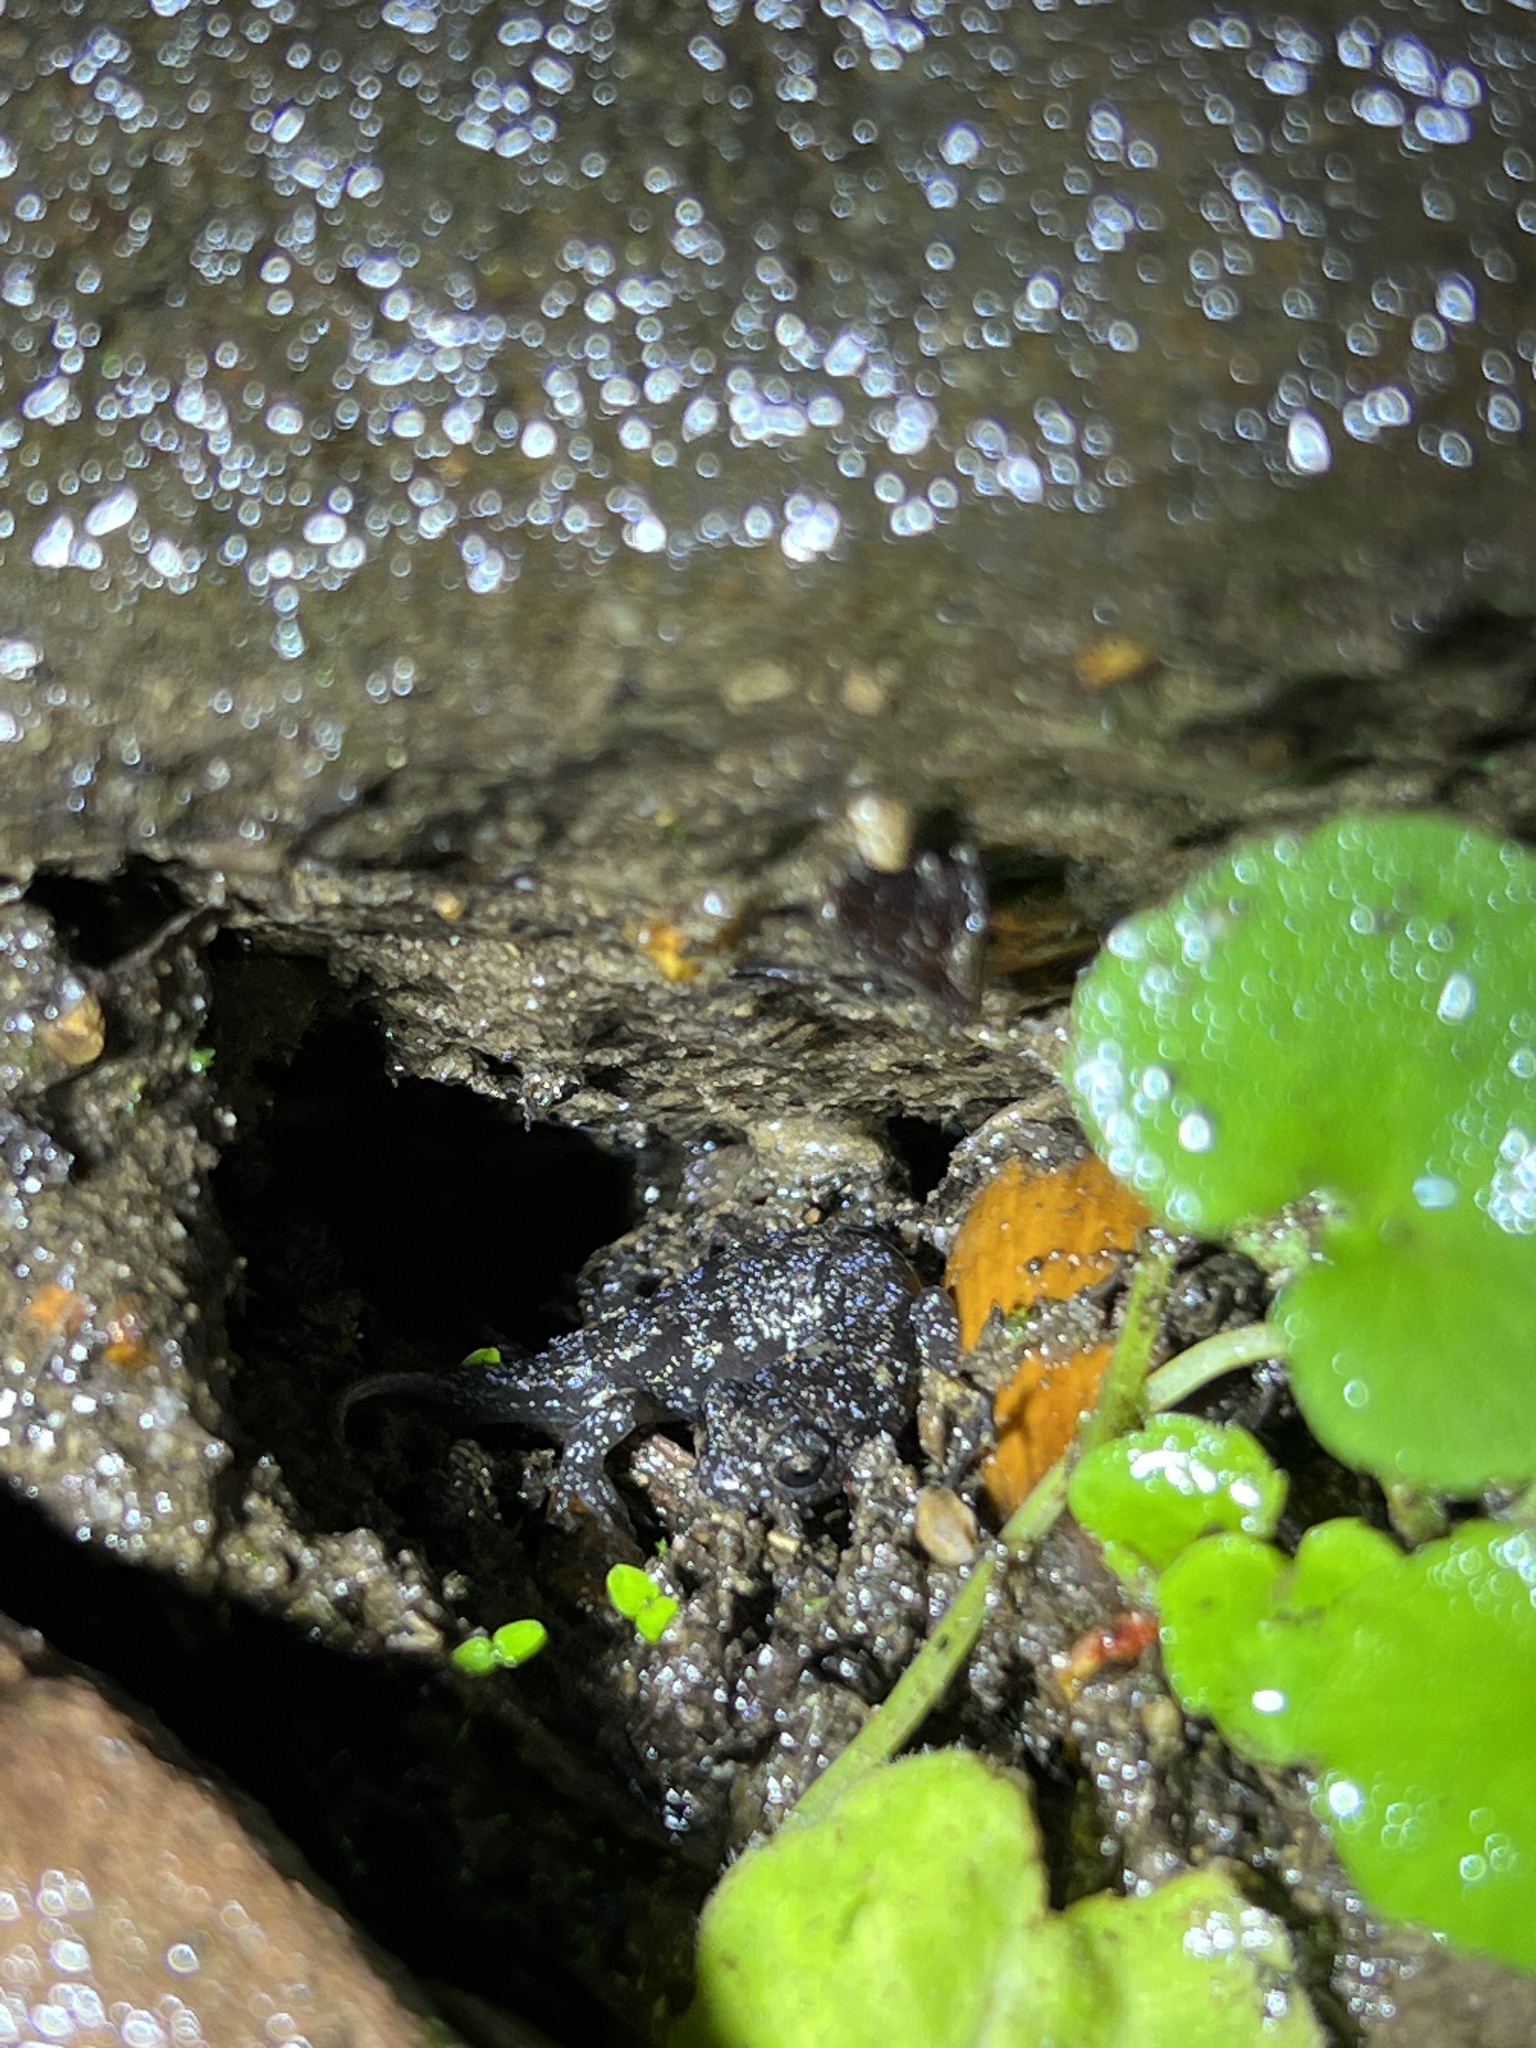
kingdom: Animalia
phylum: Chordata
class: Amphibia
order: Caudata
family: Plethodontidae
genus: Aneides
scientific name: Aneides lugubris
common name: Arboreal salamander
